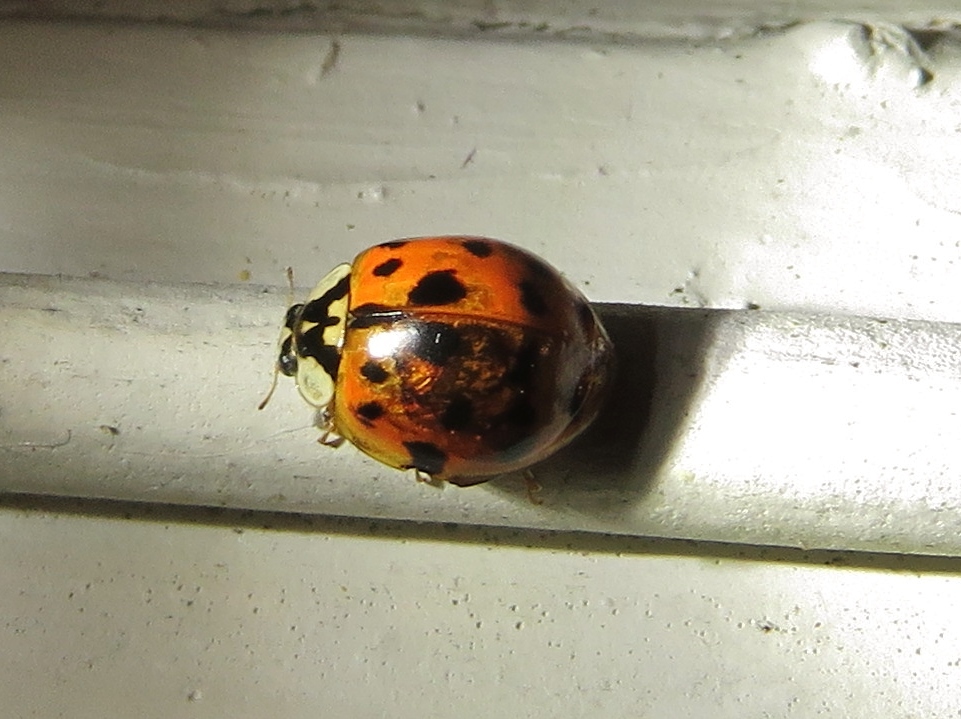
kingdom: Animalia
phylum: Arthropoda
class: Insecta
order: Coleoptera
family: Coccinellidae
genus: Harmonia
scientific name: Harmonia axyridis
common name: Harlequin ladybird
